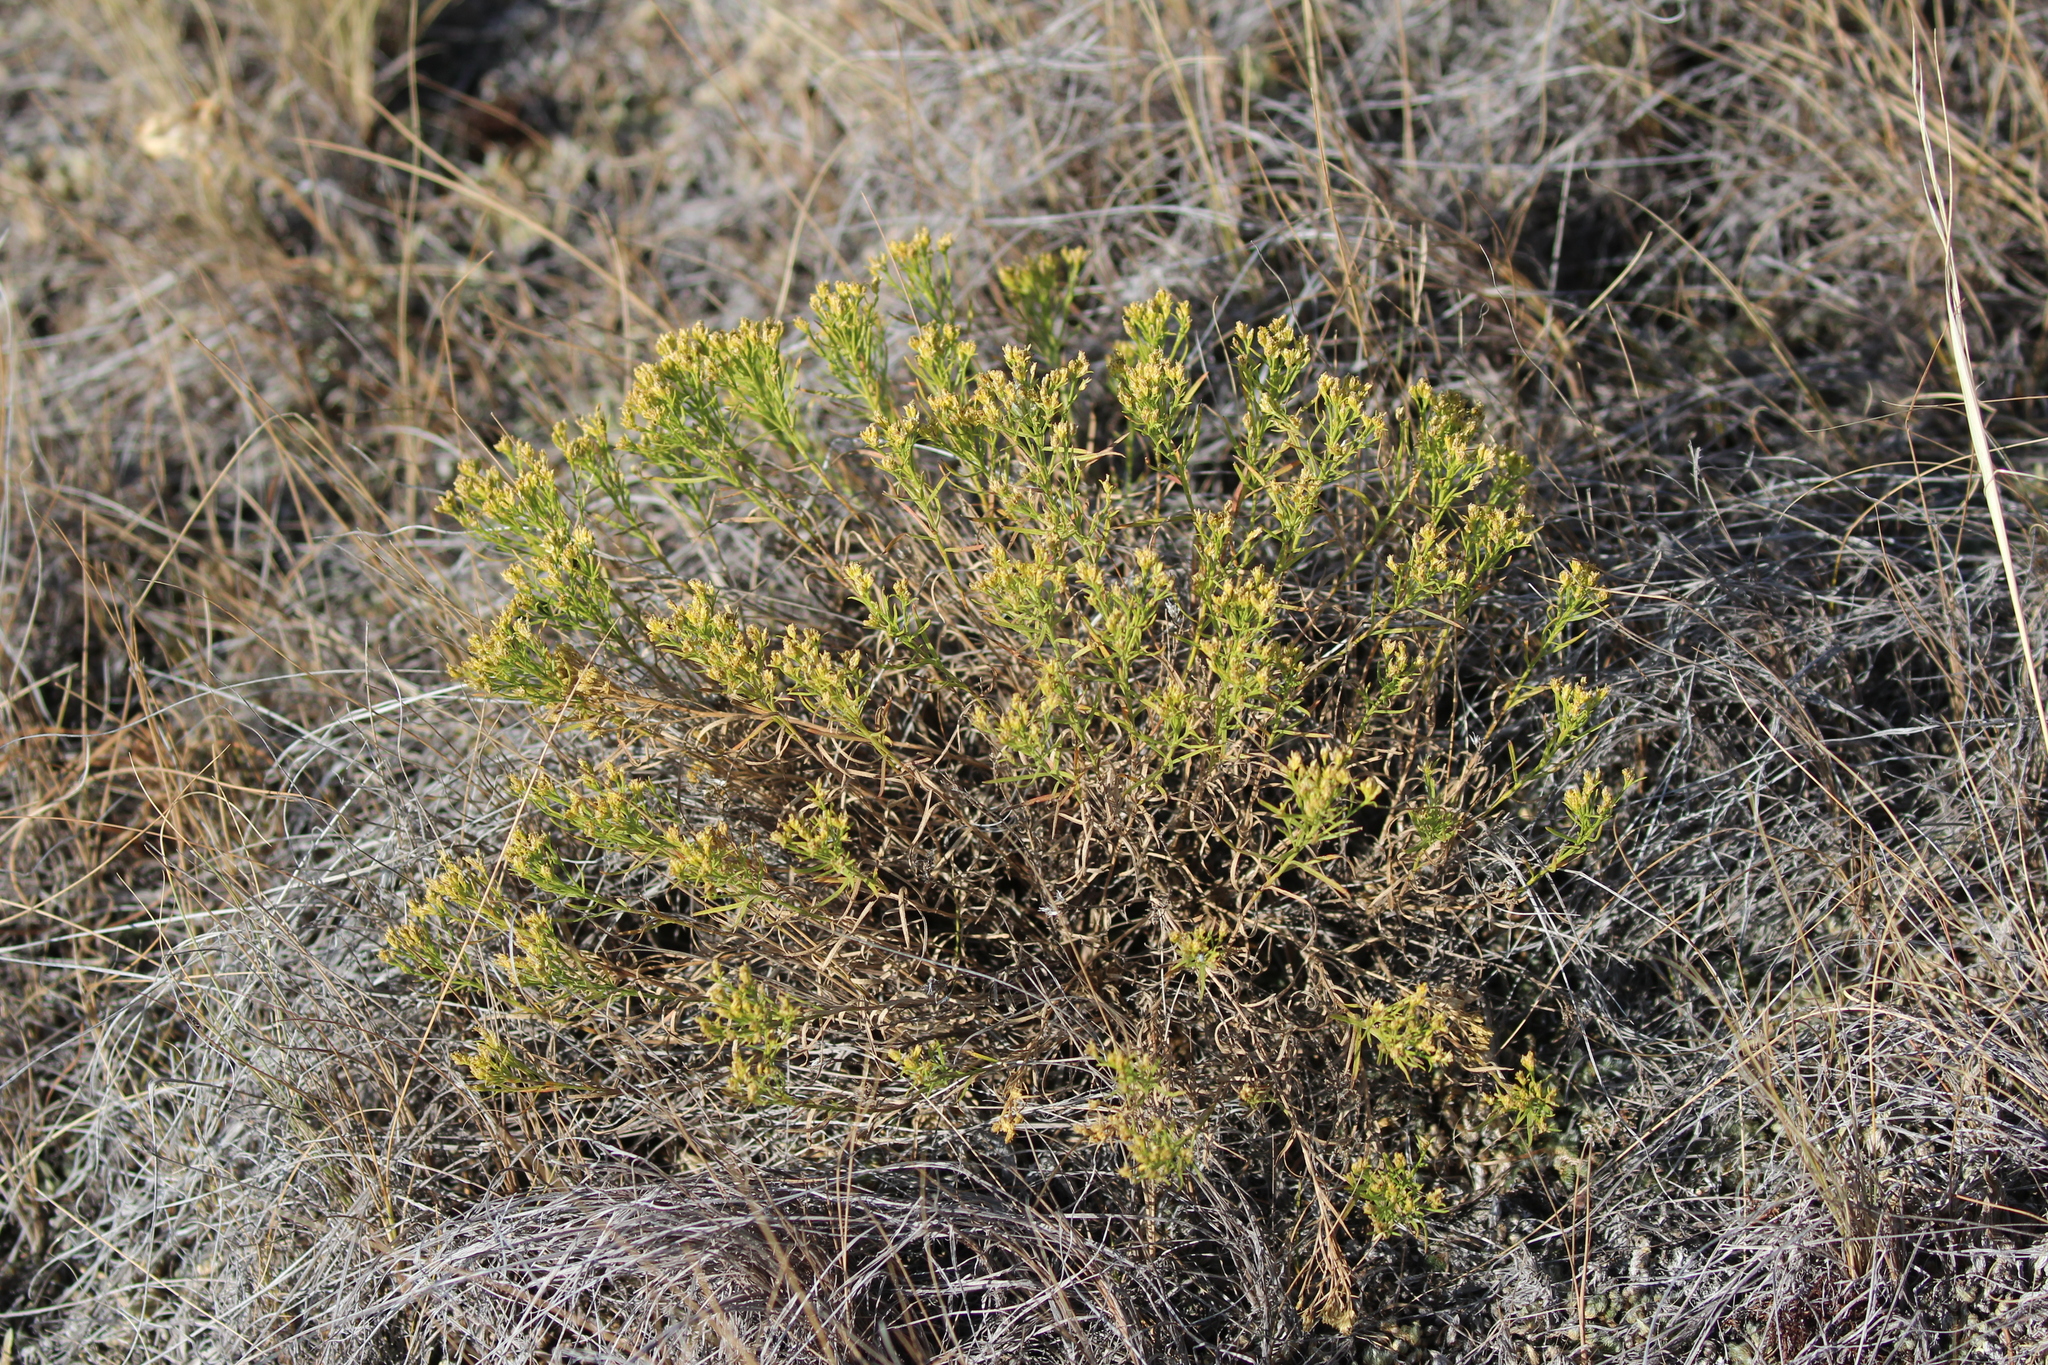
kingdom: Plantae
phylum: Tracheophyta
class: Magnoliopsida
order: Asterales
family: Asteraceae
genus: Gutierrezia
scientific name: Gutierrezia sarothrae
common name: Broom snakeweed
